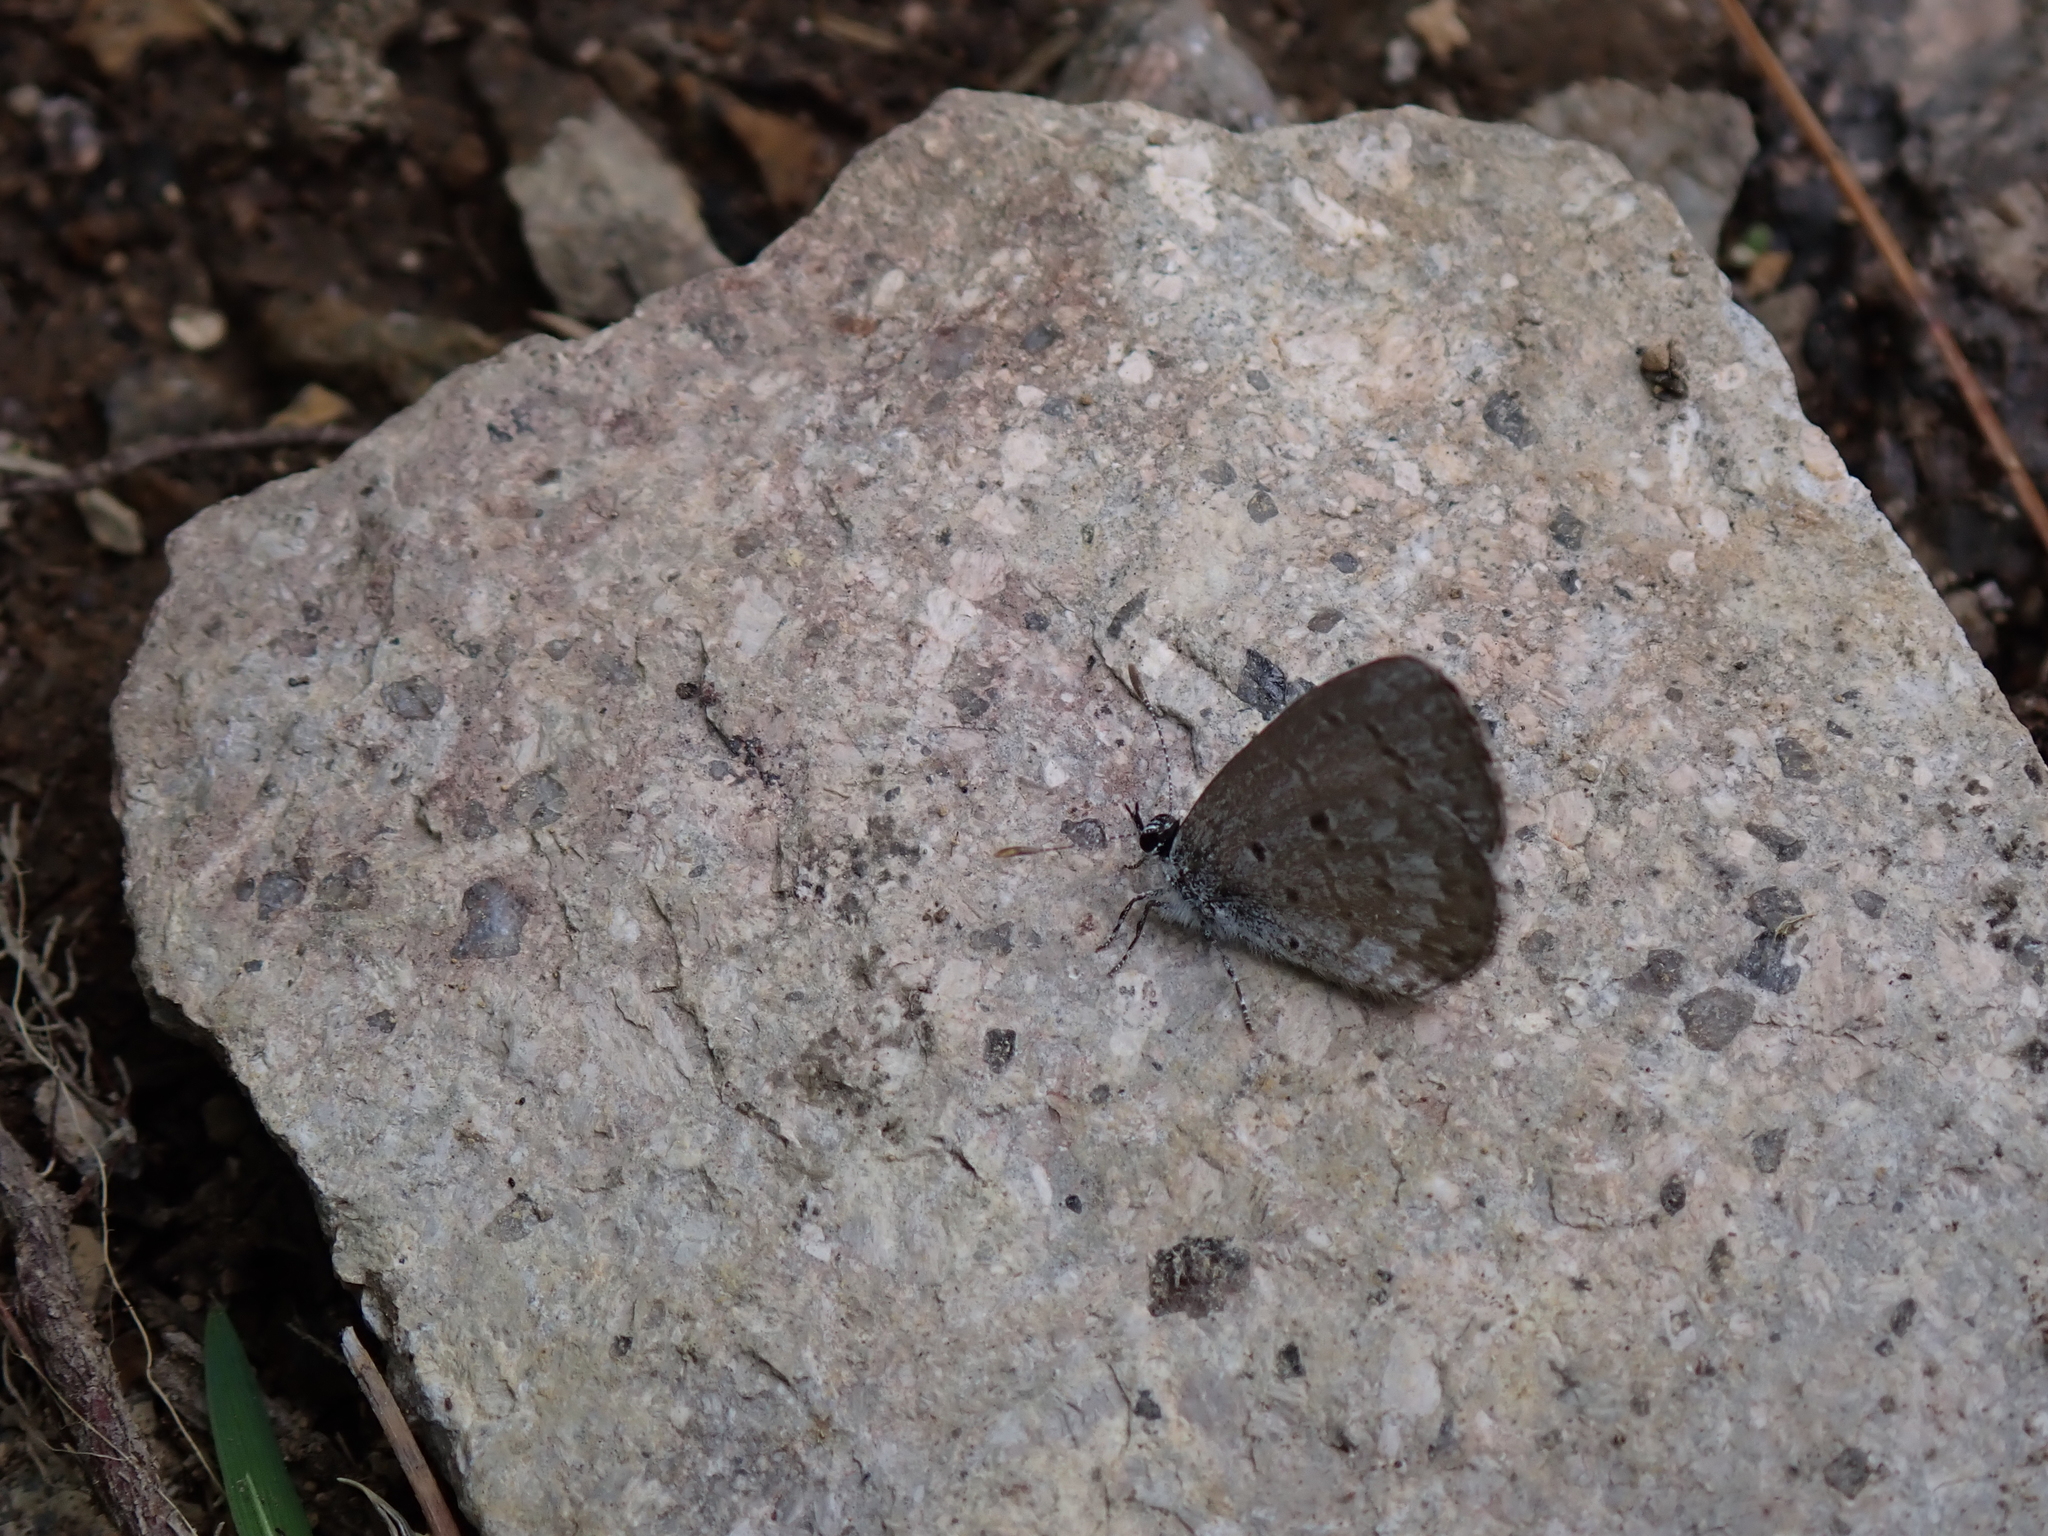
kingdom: Animalia
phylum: Arthropoda
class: Insecta
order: Lepidoptera
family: Lycaenidae
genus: Celastrina
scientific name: Celastrina lucia
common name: Lucia azure
